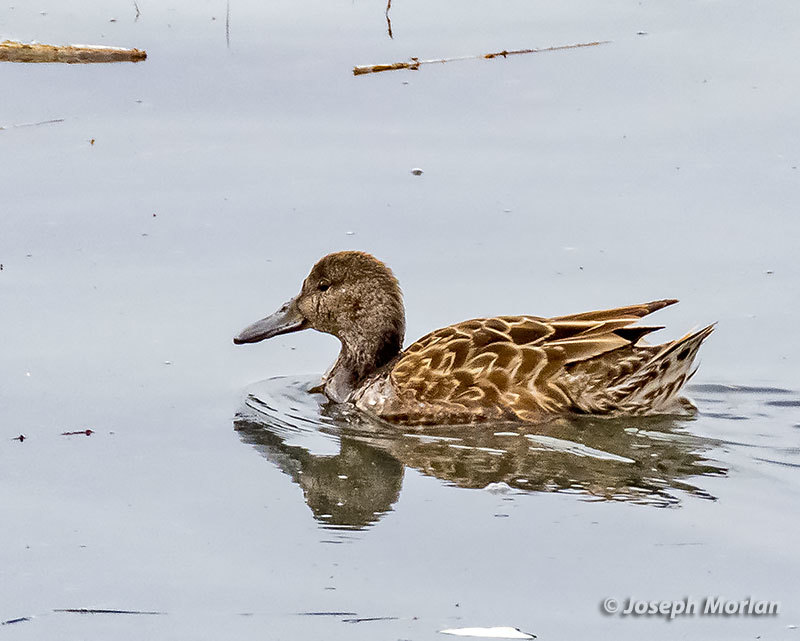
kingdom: Animalia
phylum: Chordata
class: Aves
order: Anseriformes
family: Anatidae
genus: Spatula
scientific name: Spatula cyanoptera
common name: Cinnamon teal
